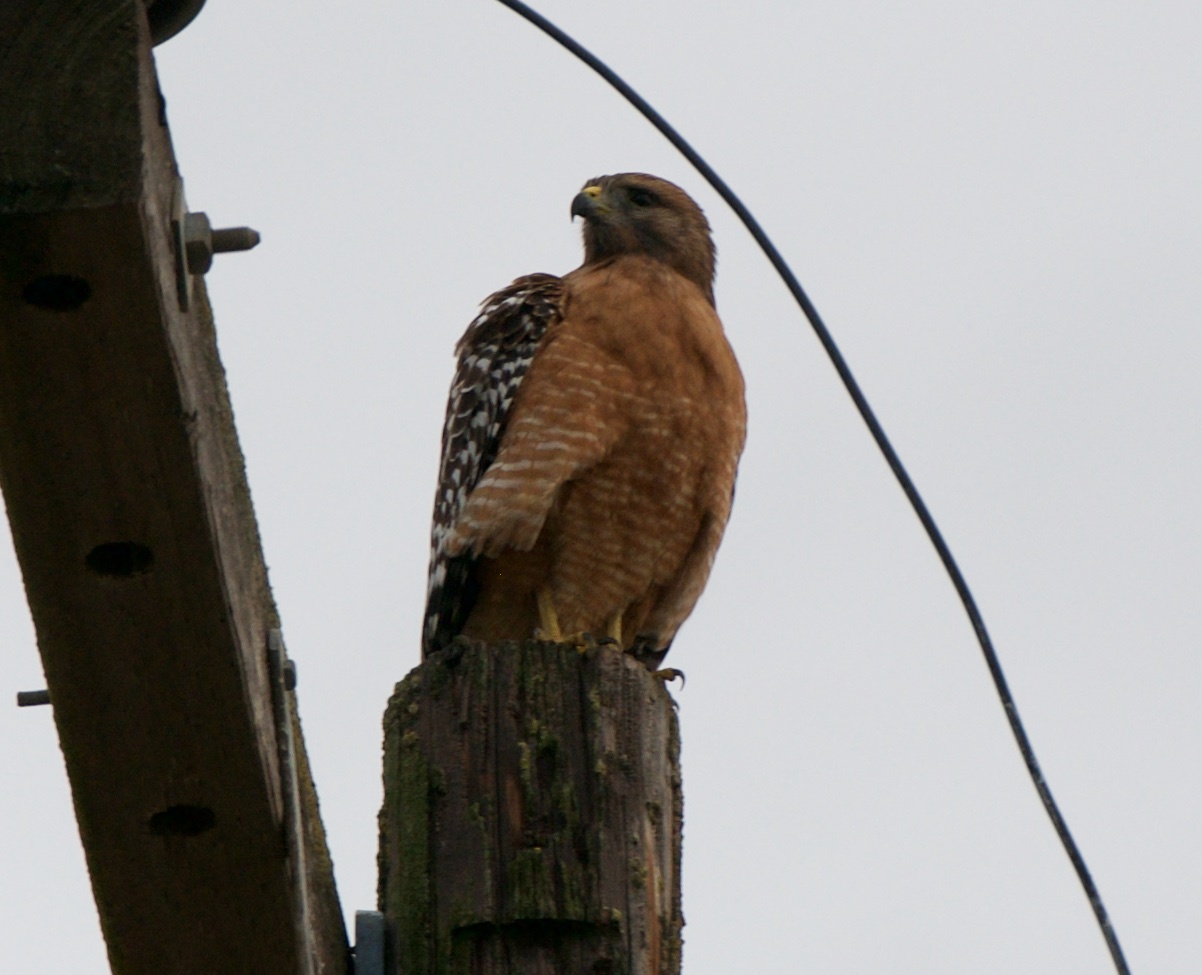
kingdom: Animalia
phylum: Chordata
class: Aves
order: Accipitriformes
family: Accipitridae
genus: Buteo
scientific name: Buteo lineatus
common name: Red-shouldered hawk
